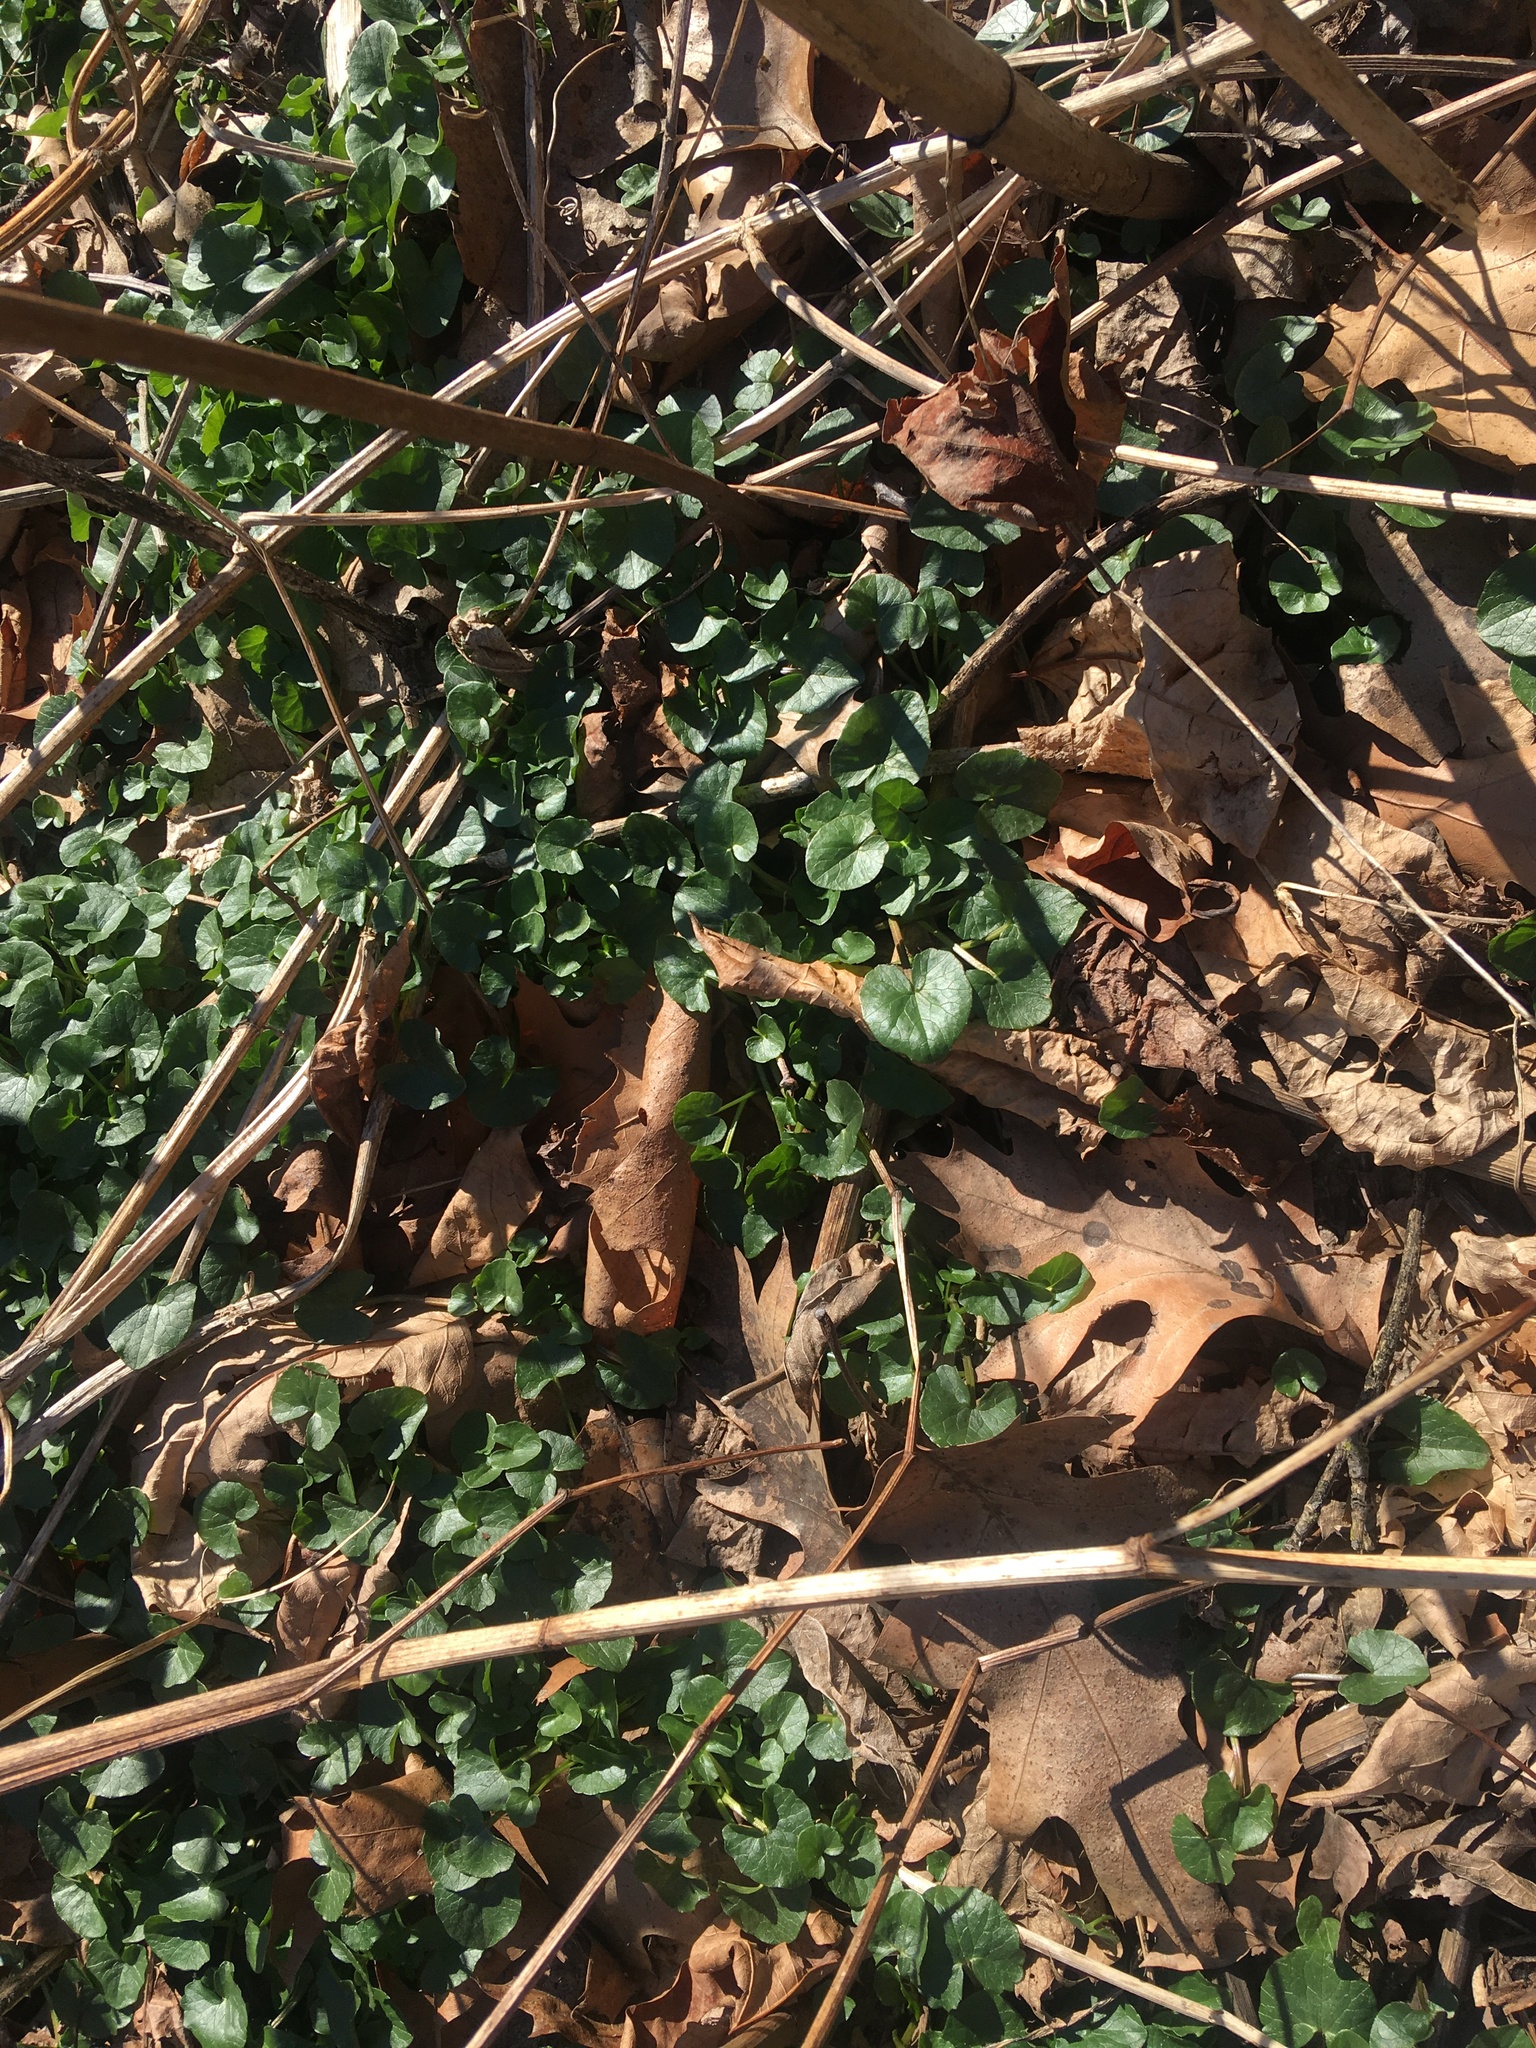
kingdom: Plantae
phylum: Tracheophyta
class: Magnoliopsida
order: Ranunculales
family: Ranunculaceae
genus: Ficaria
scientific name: Ficaria verna
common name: Lesser celandine
